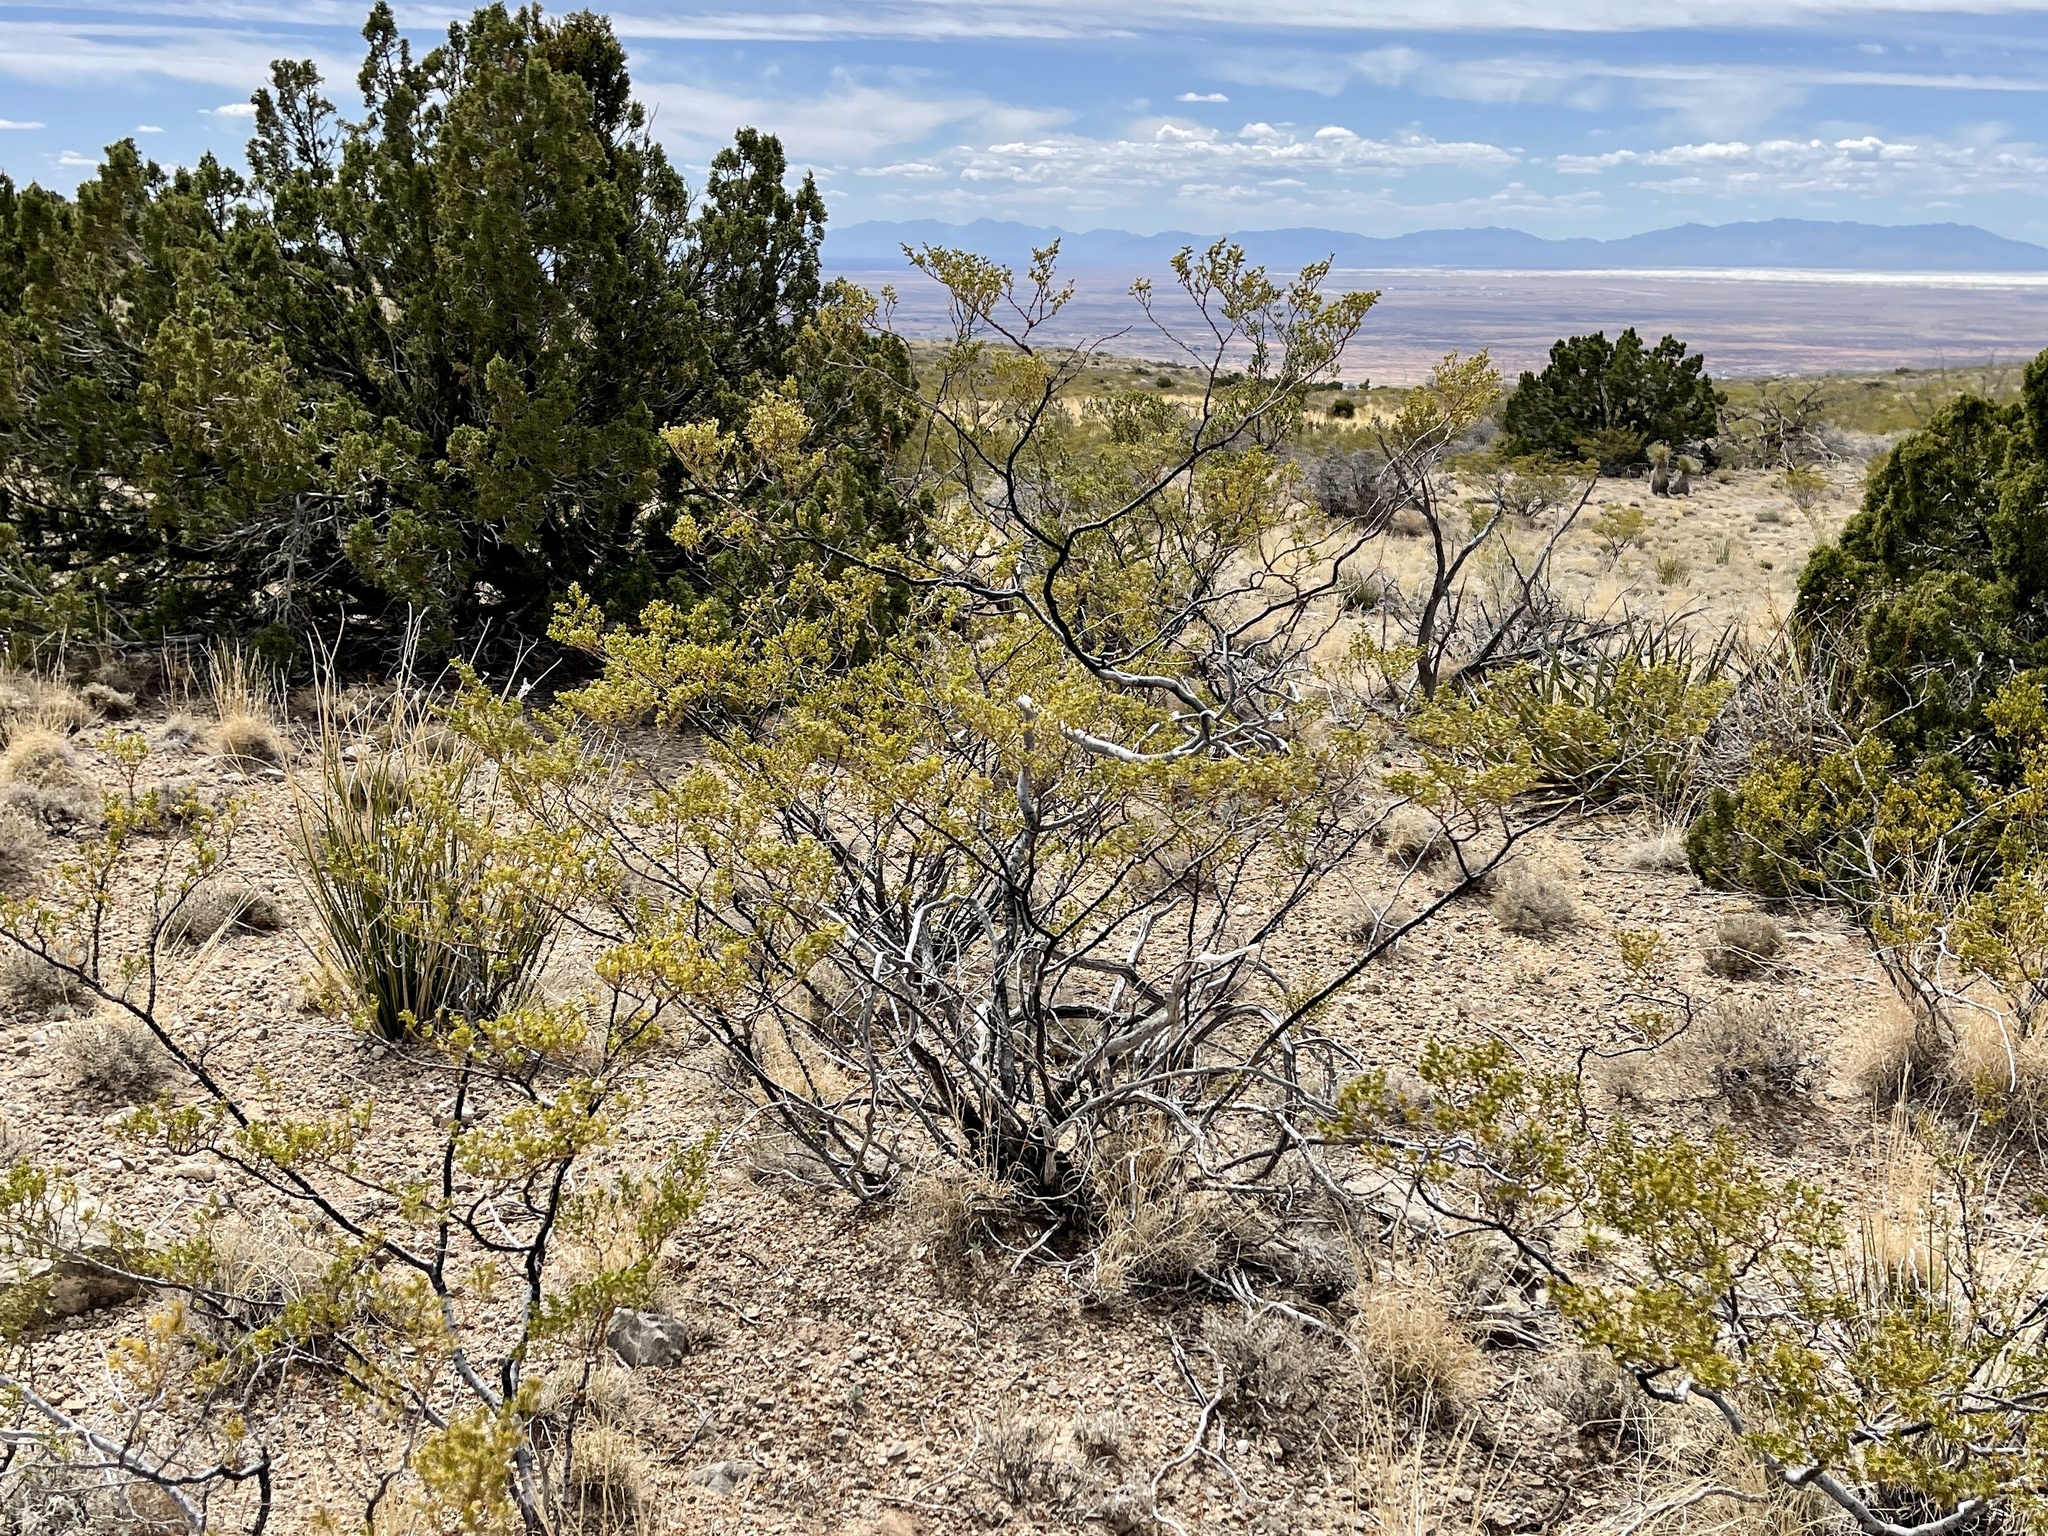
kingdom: Plantae
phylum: Tracheophyta
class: Magnoliopsida
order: Zygophyllales
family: Zygophyllaceae
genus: Larrea
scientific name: Larrea tridentata
